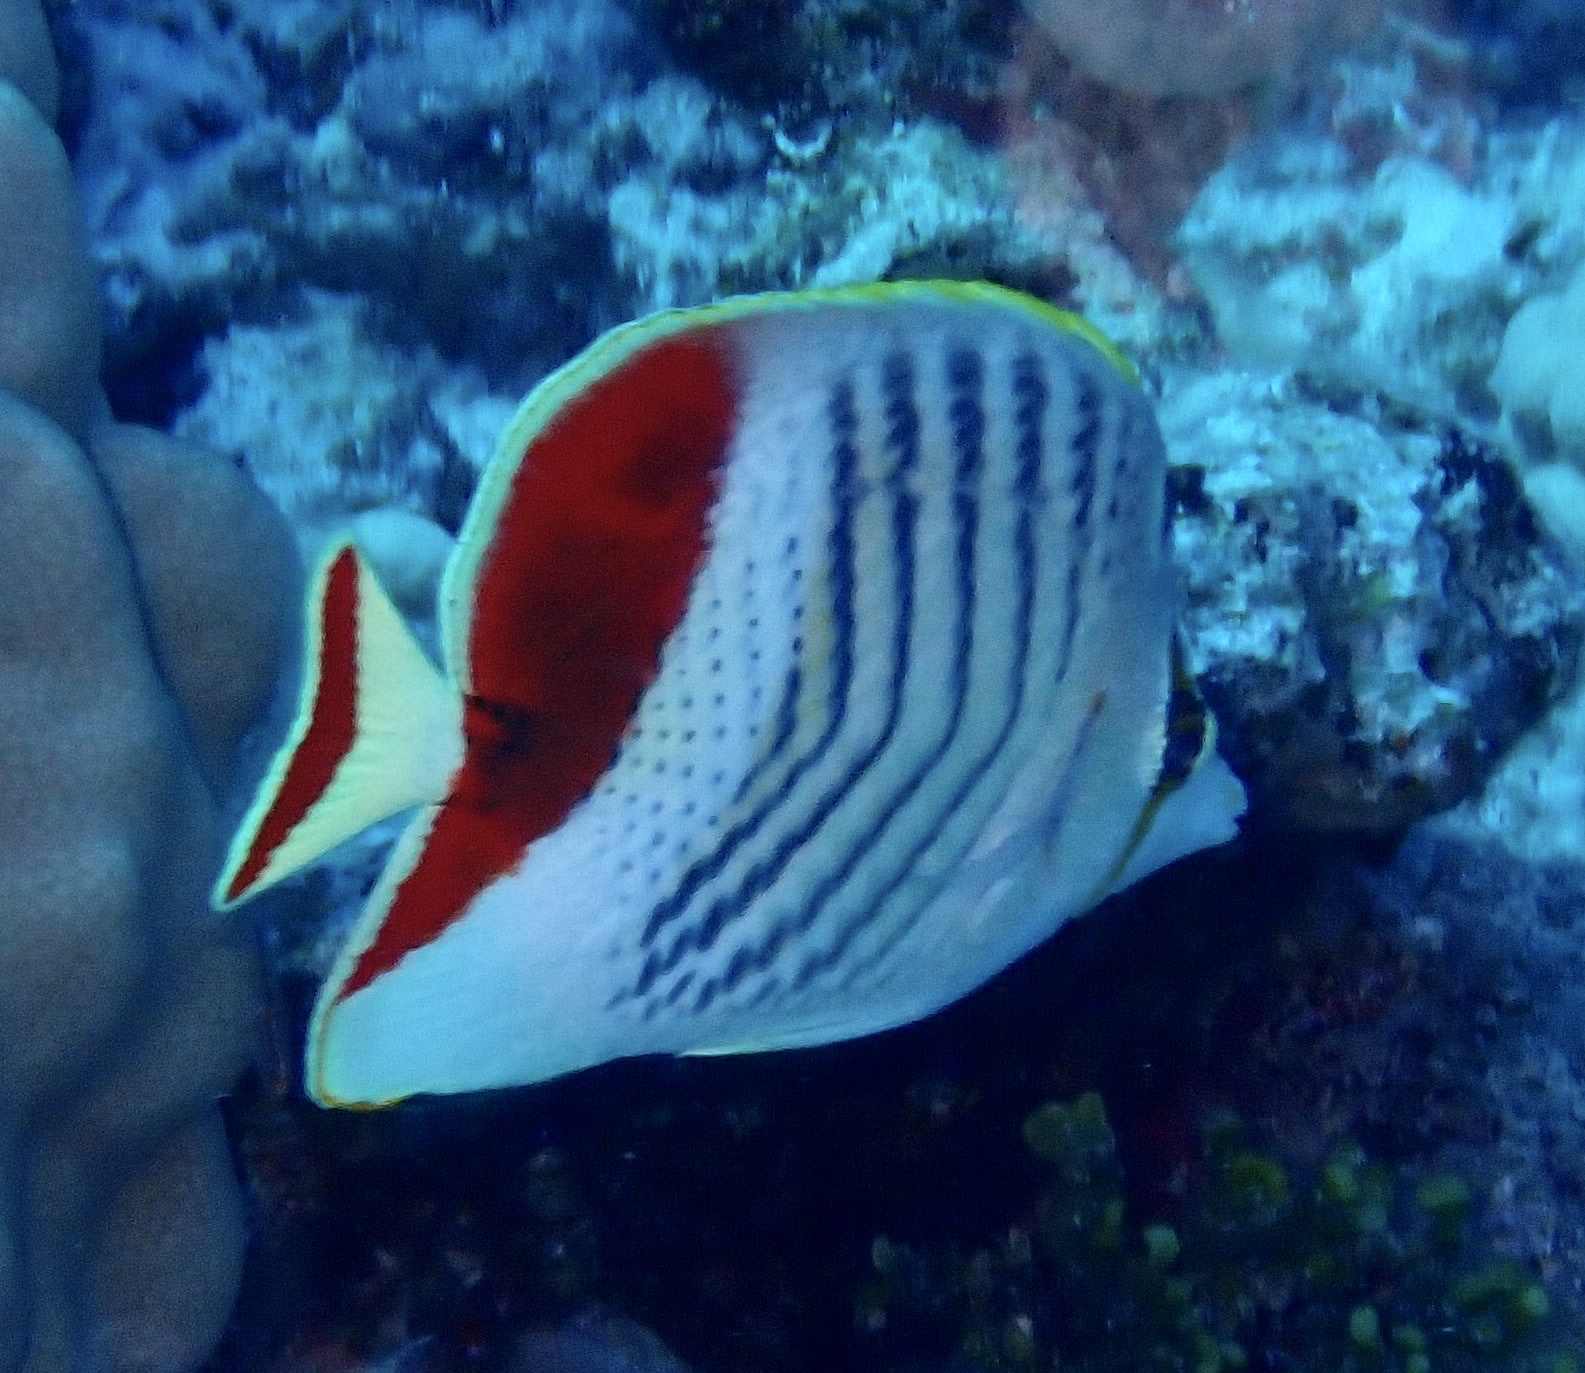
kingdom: Animalia
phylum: Chordata
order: Perciformes
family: Chaetodontidae
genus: Chaetodon
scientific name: Chaetodon paucifasciatus
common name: Crown butterflyfish
